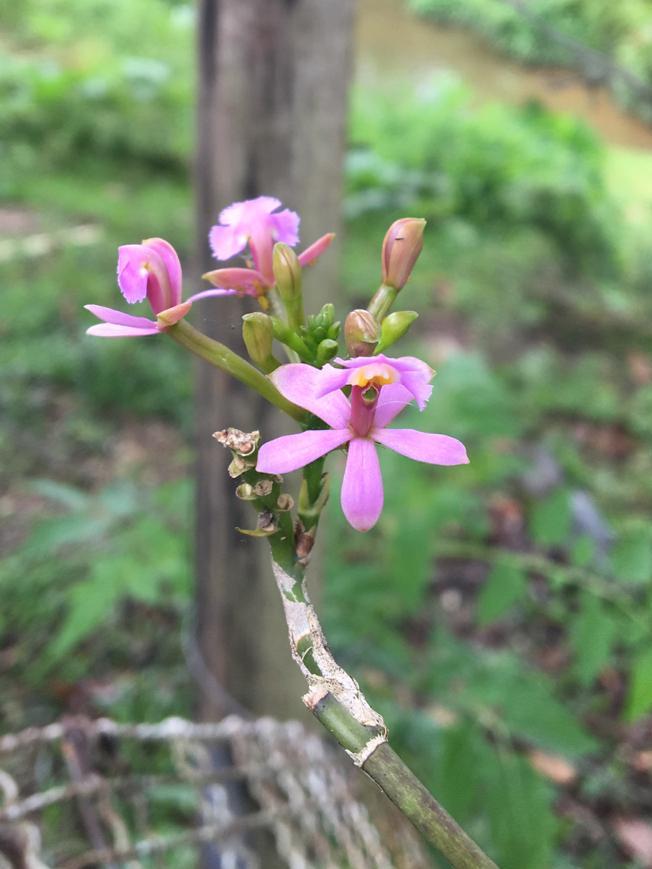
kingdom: Plantae
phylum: Tracheophyta
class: Liliopsida
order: Asparagales
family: Orchidaceae
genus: Epidendrum
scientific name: Epidendrum secundum
